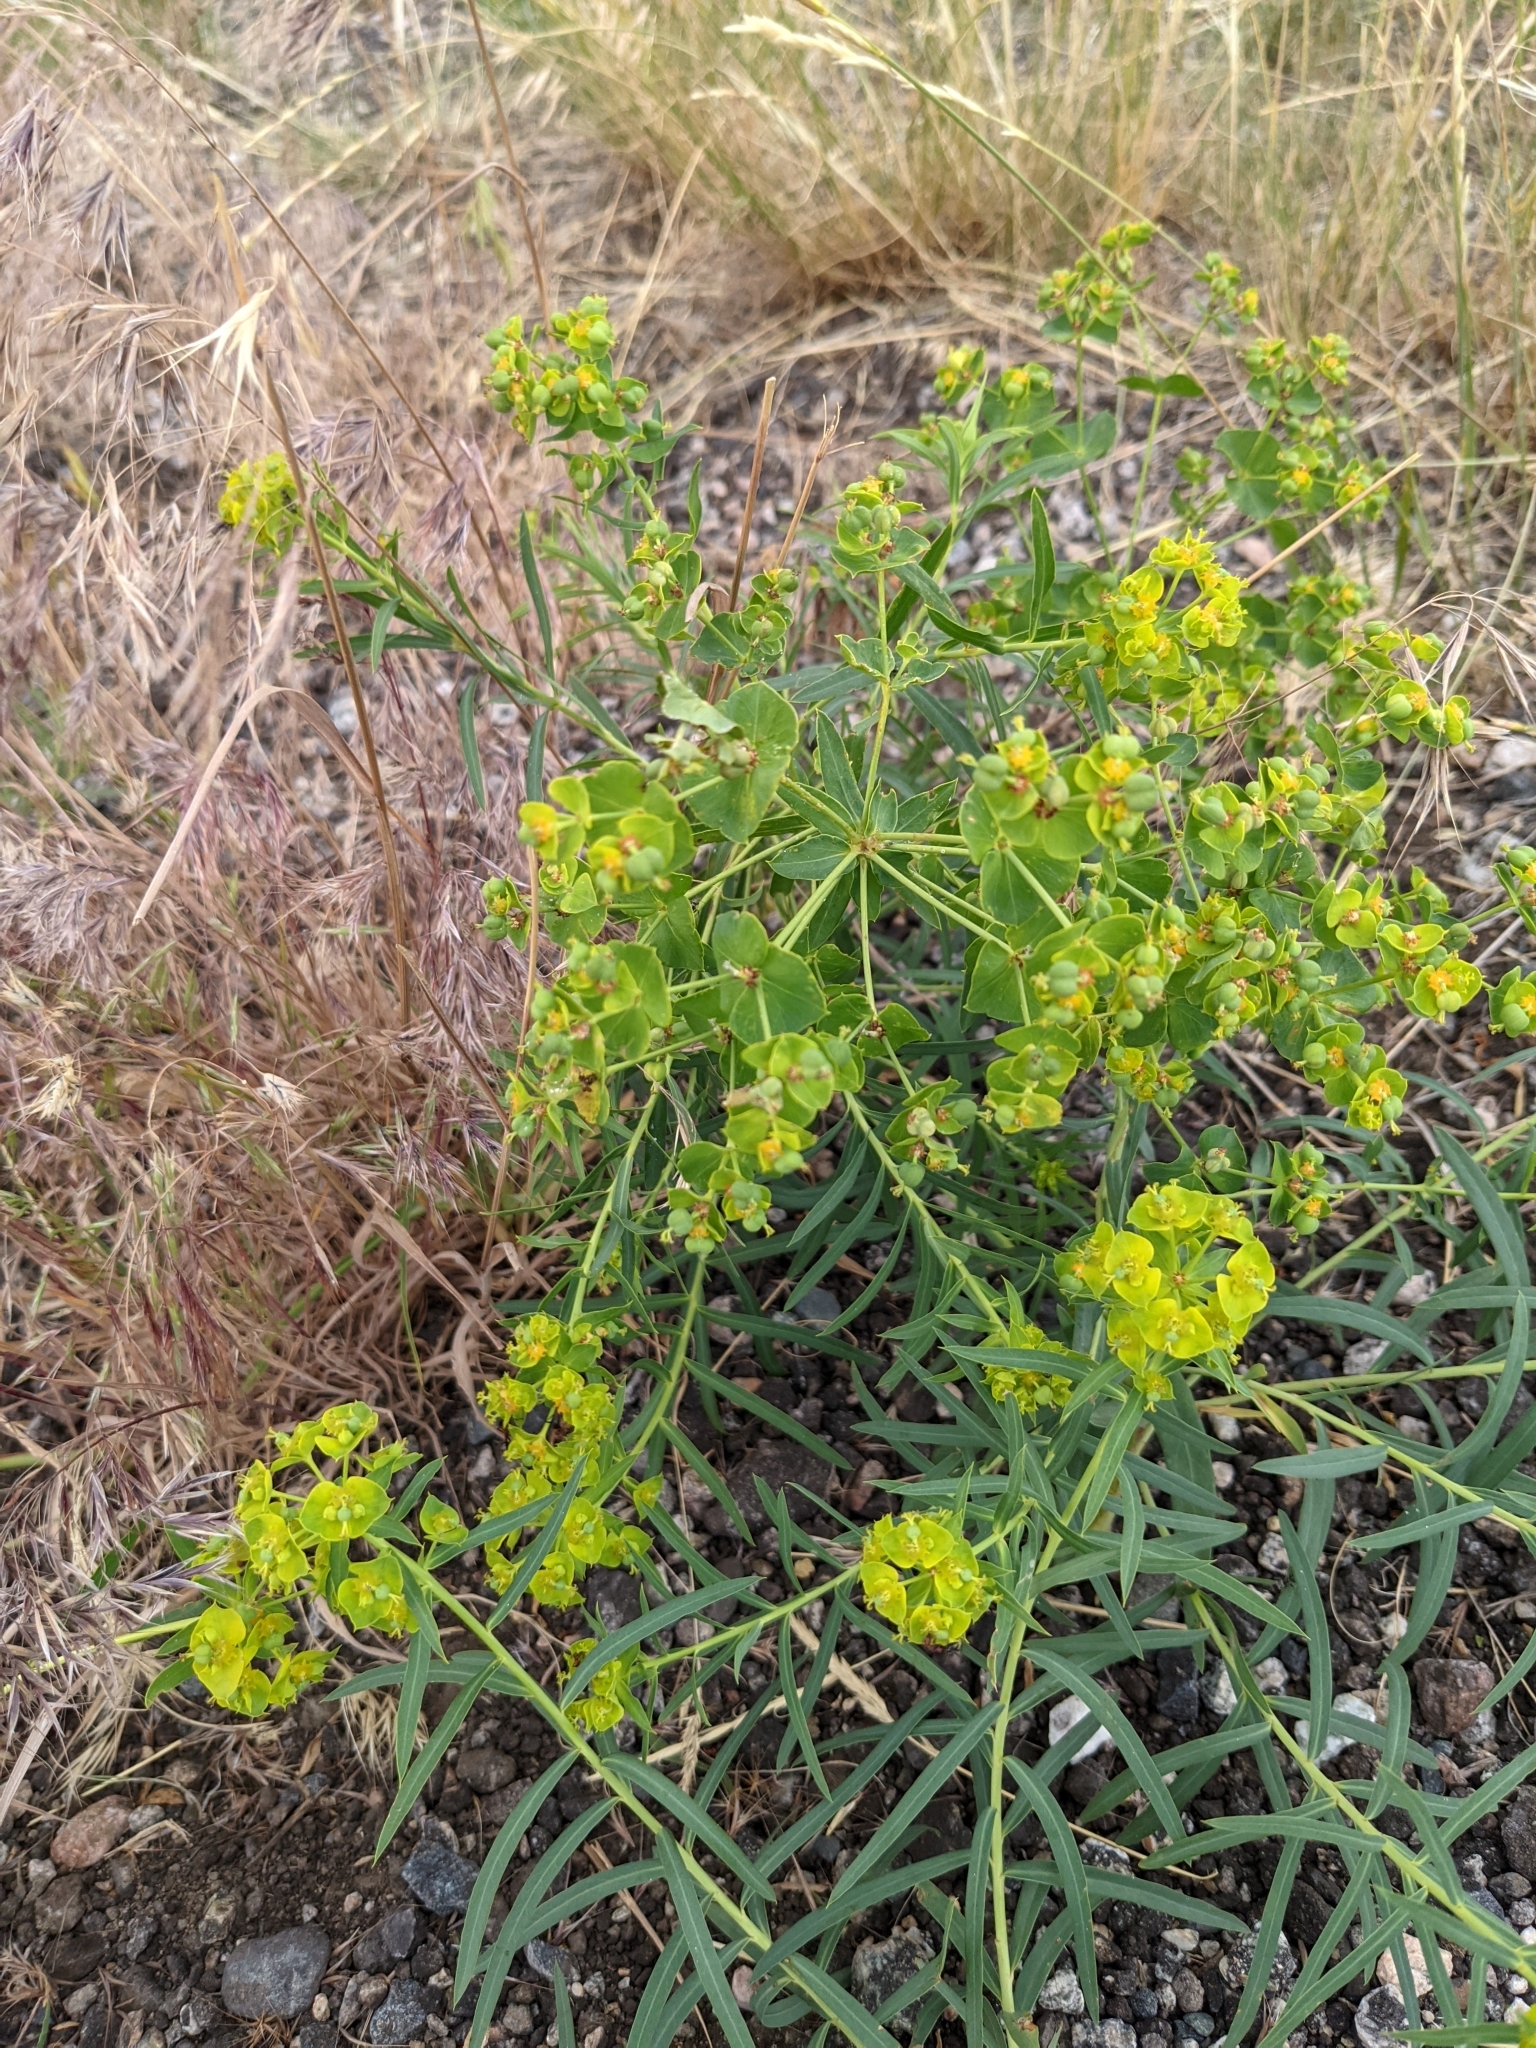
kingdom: Plantae
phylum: Tracheophyta
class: Magnoliopsida
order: Malpighiales
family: Euphorbiaceae
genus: Euphorbia
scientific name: Euphorbia virgata
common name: Leafy spurge
